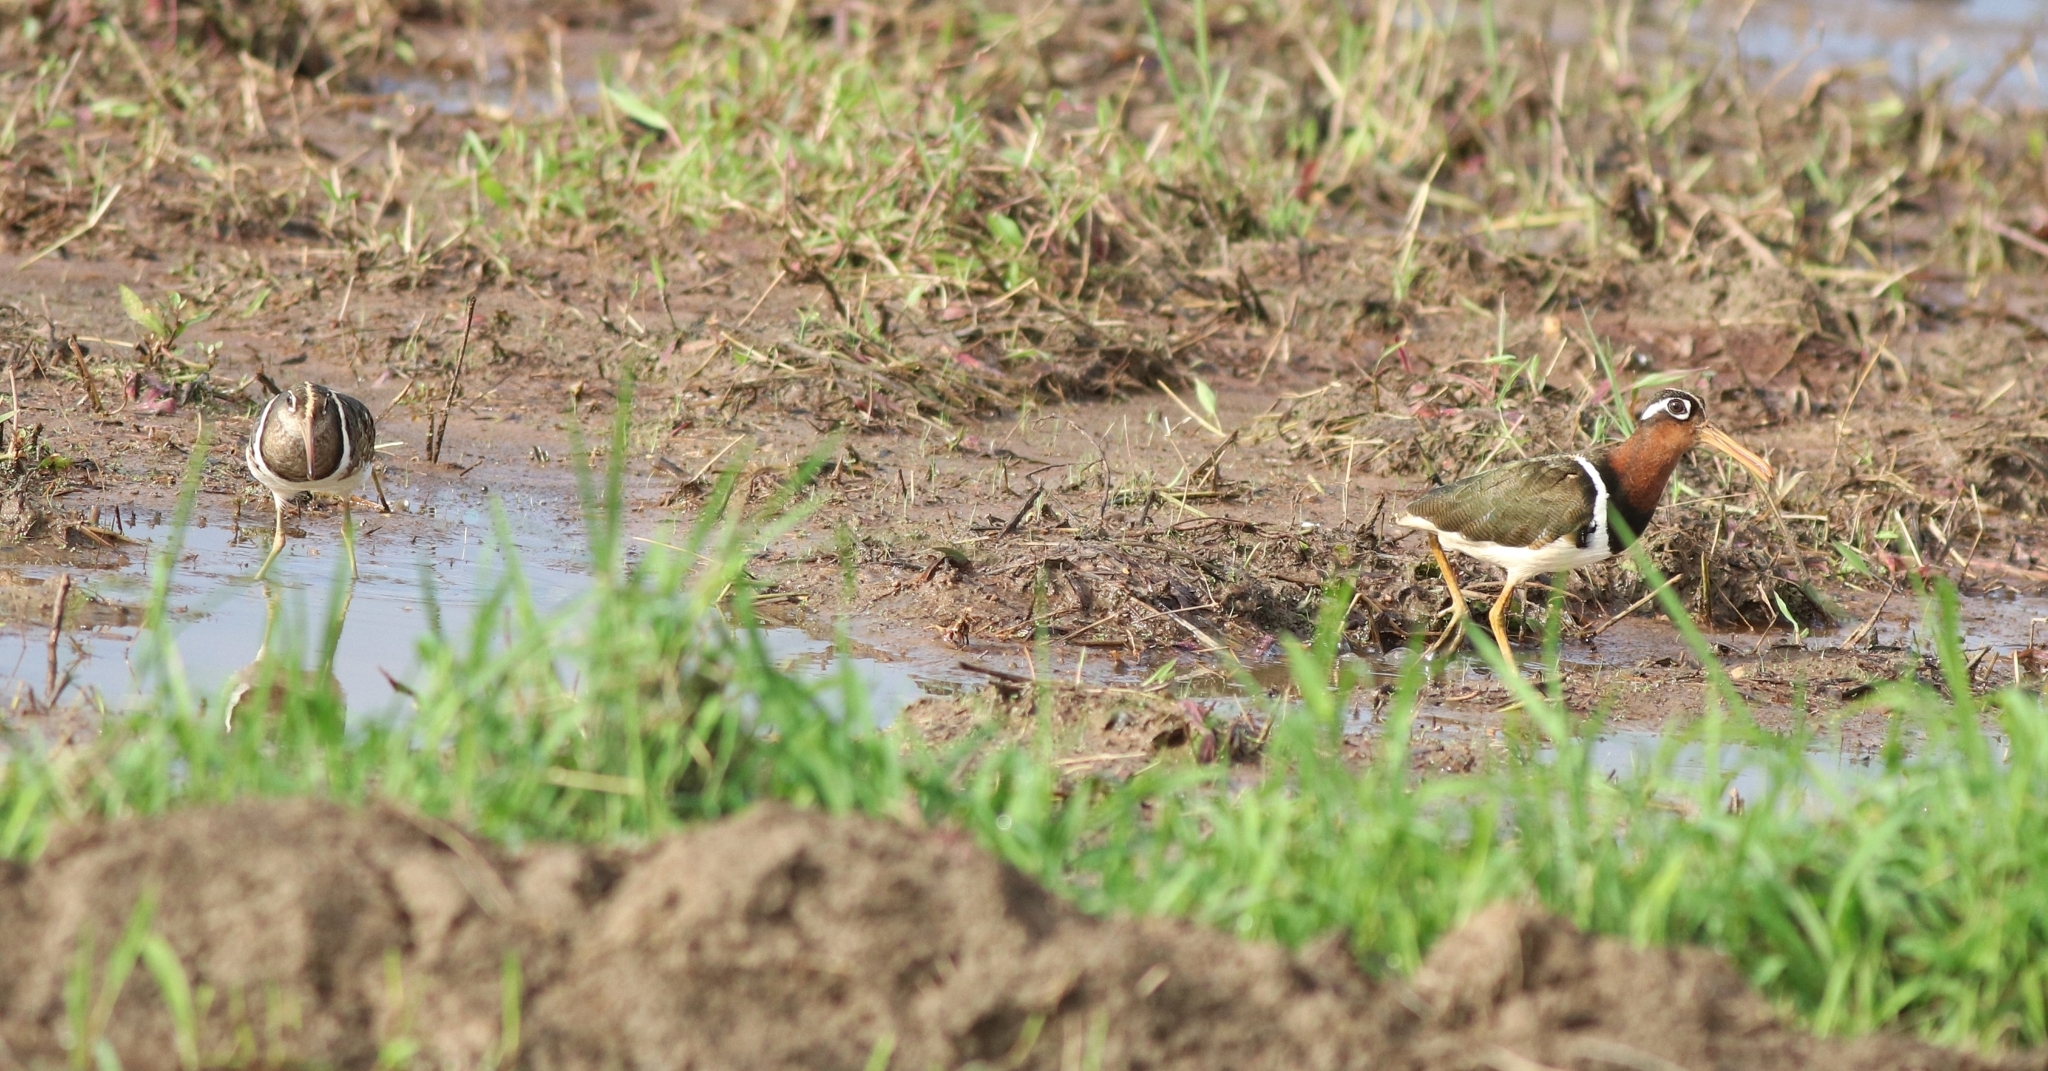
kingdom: Animalia
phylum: Chordata
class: Aves
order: Charadriiformes
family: Rostratulidae
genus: Rostratula
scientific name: Rostratula benghalensis
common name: Greater painted-snipe
